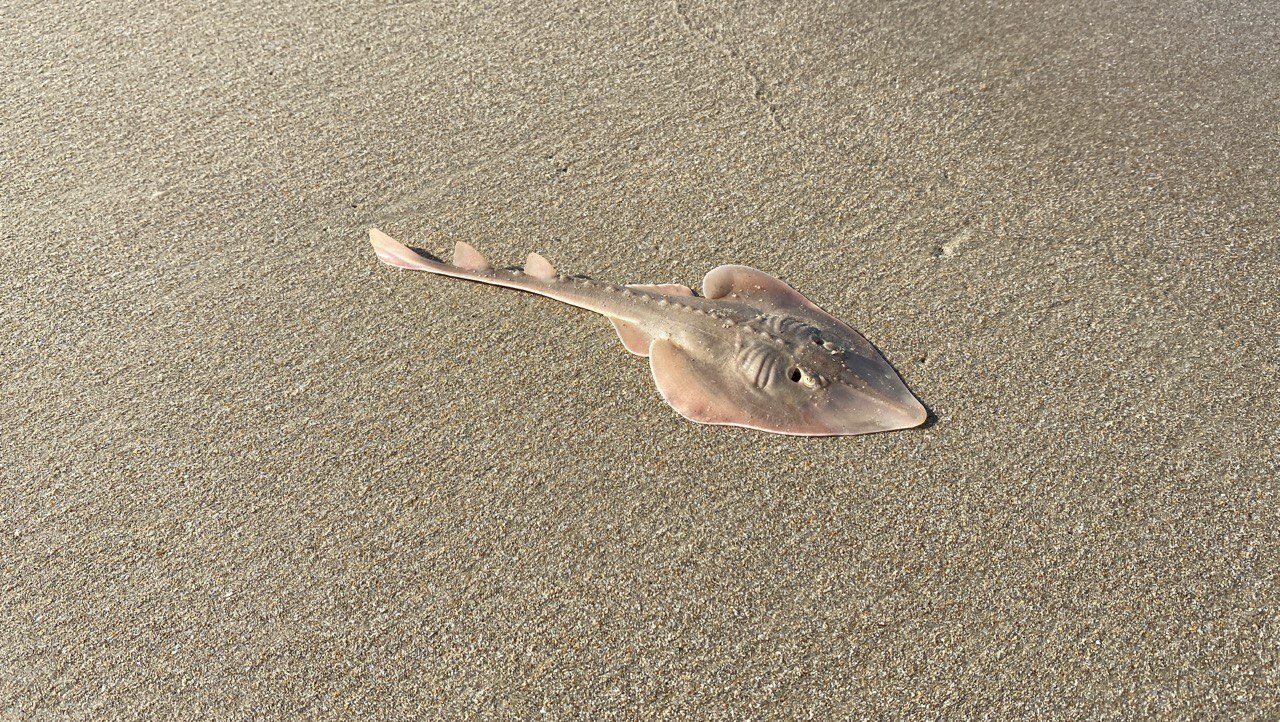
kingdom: Animalia
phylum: Chordata
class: Elasmobranchii
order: Rhinopristiformes
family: Glaucostegidae
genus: Glaucostegus
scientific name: Glaucostegus obtusus
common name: Widenose guitarfish
